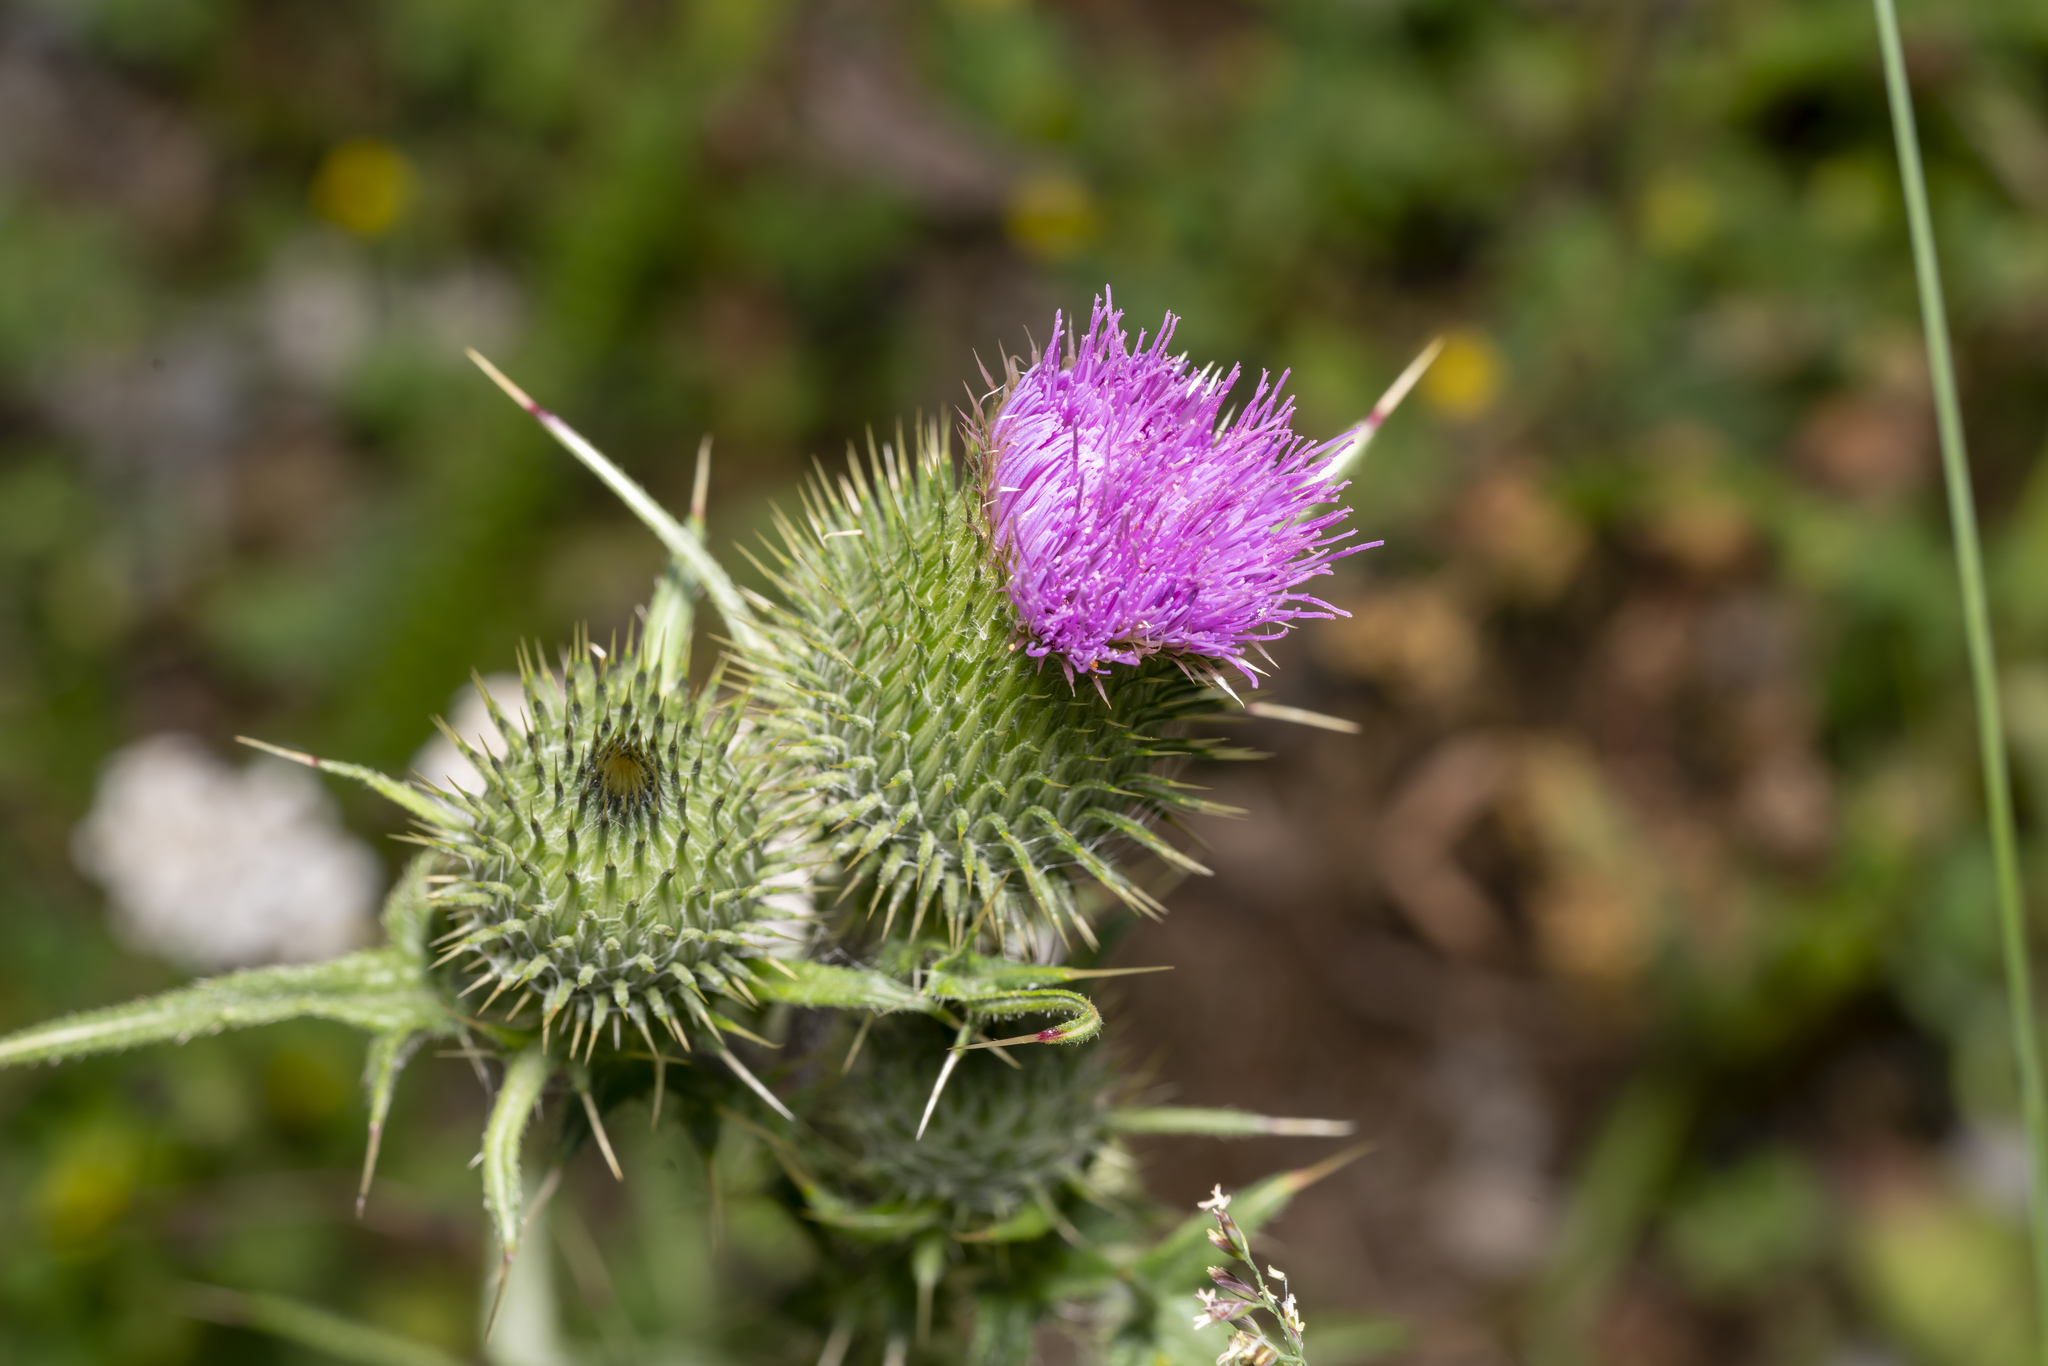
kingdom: Plantae
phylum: Tracheophyta
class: Magnoliopsida
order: Asterales
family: Asteraceae
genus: Cirsium
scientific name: Cirsium vulgare
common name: Bull thistle
